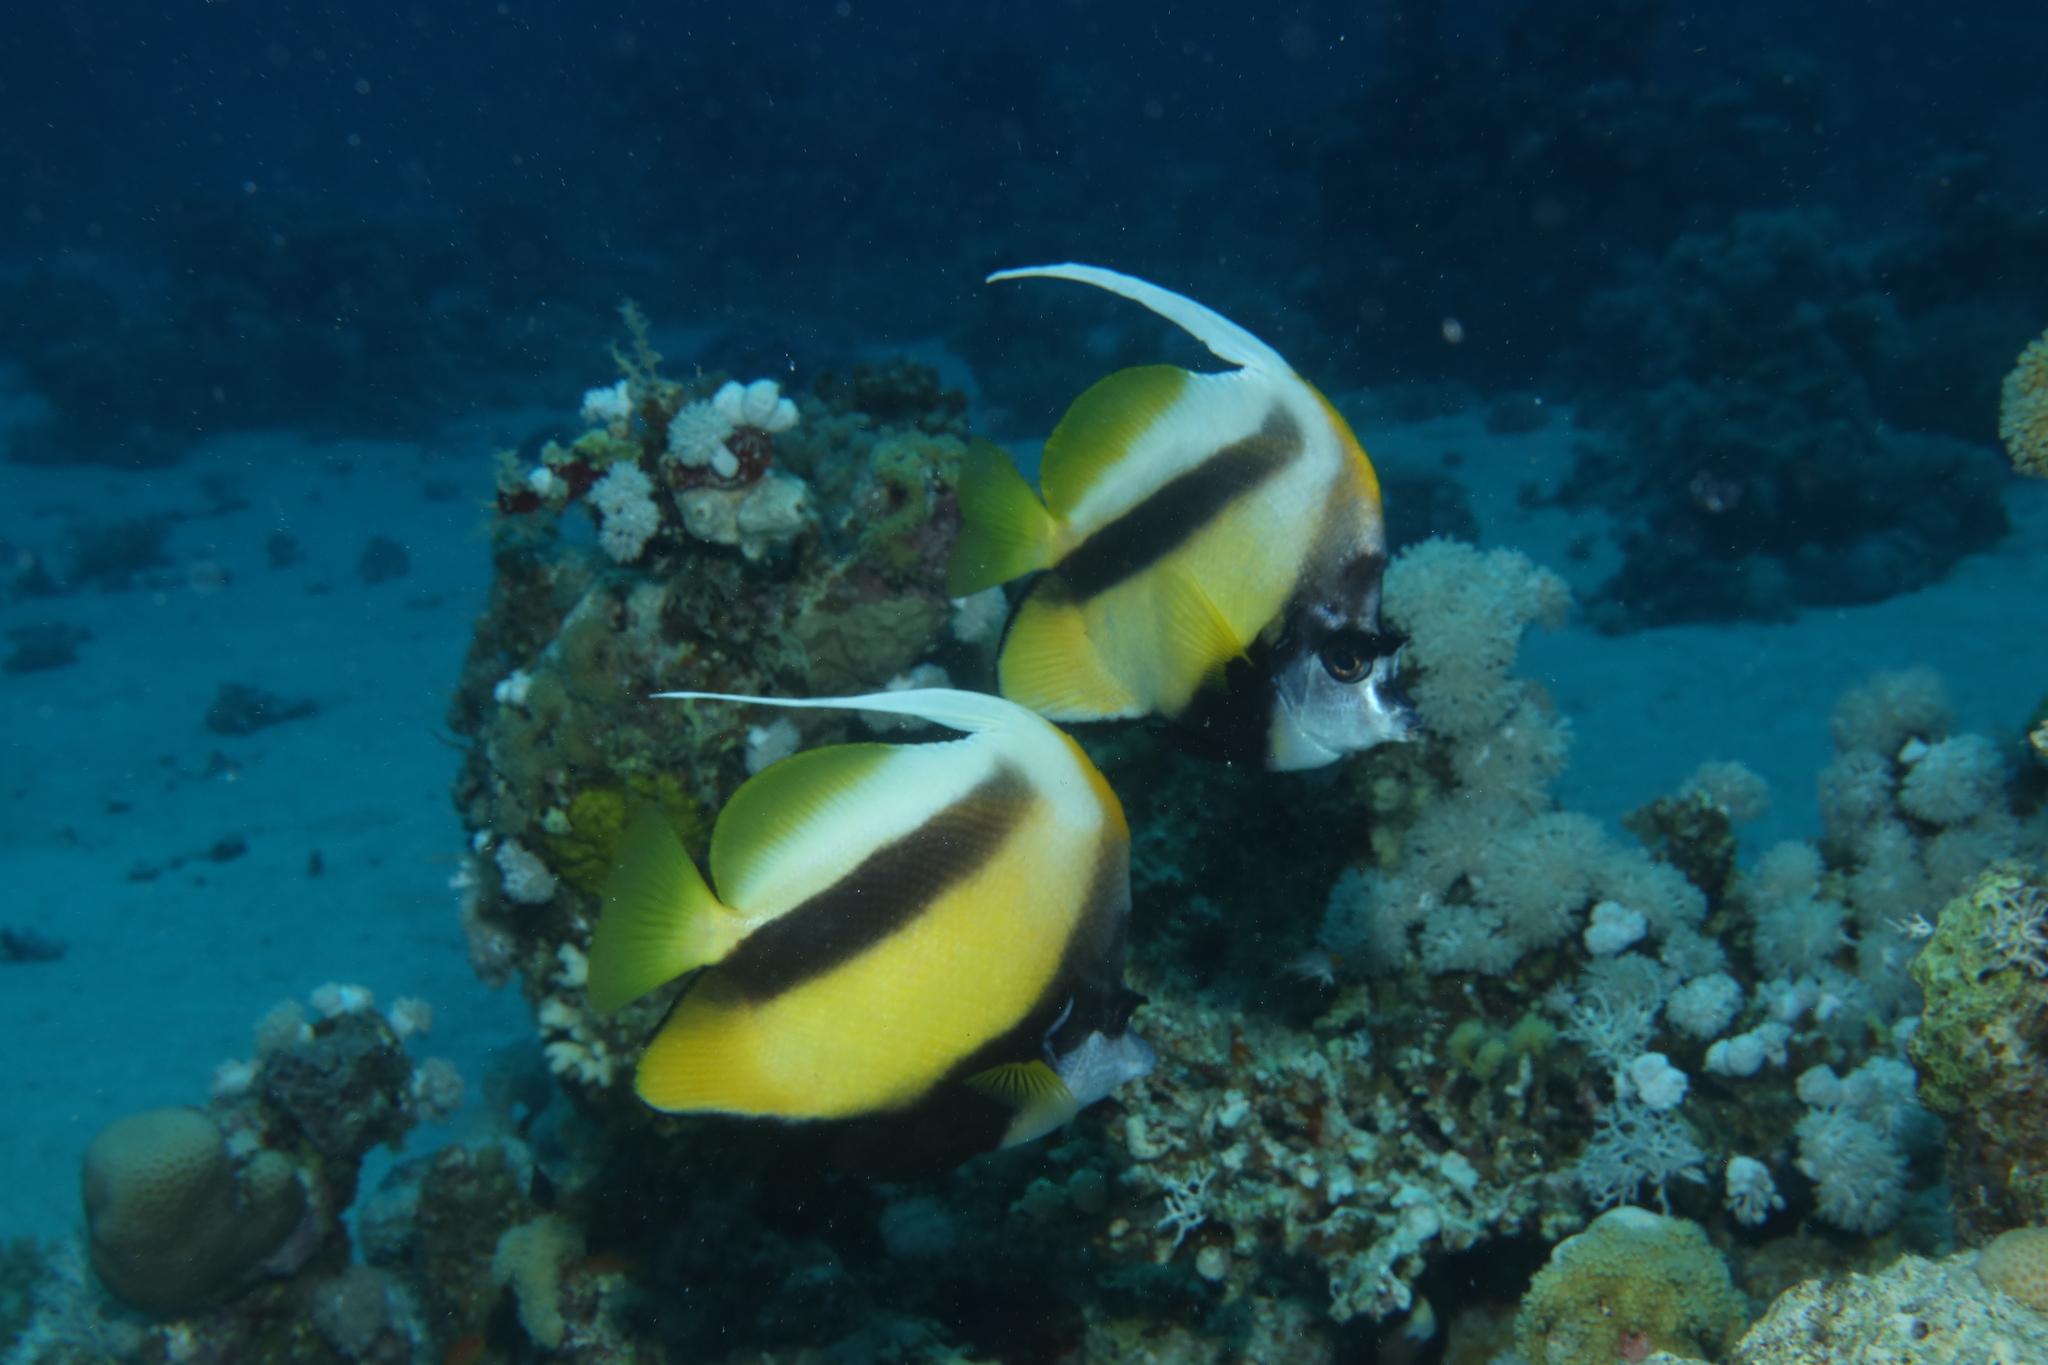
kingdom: Animalia
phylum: Chordata
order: Perciformes
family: Chaetodontidae
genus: Heniochus
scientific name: Heniochus intermedius
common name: Red sea bannerfish
